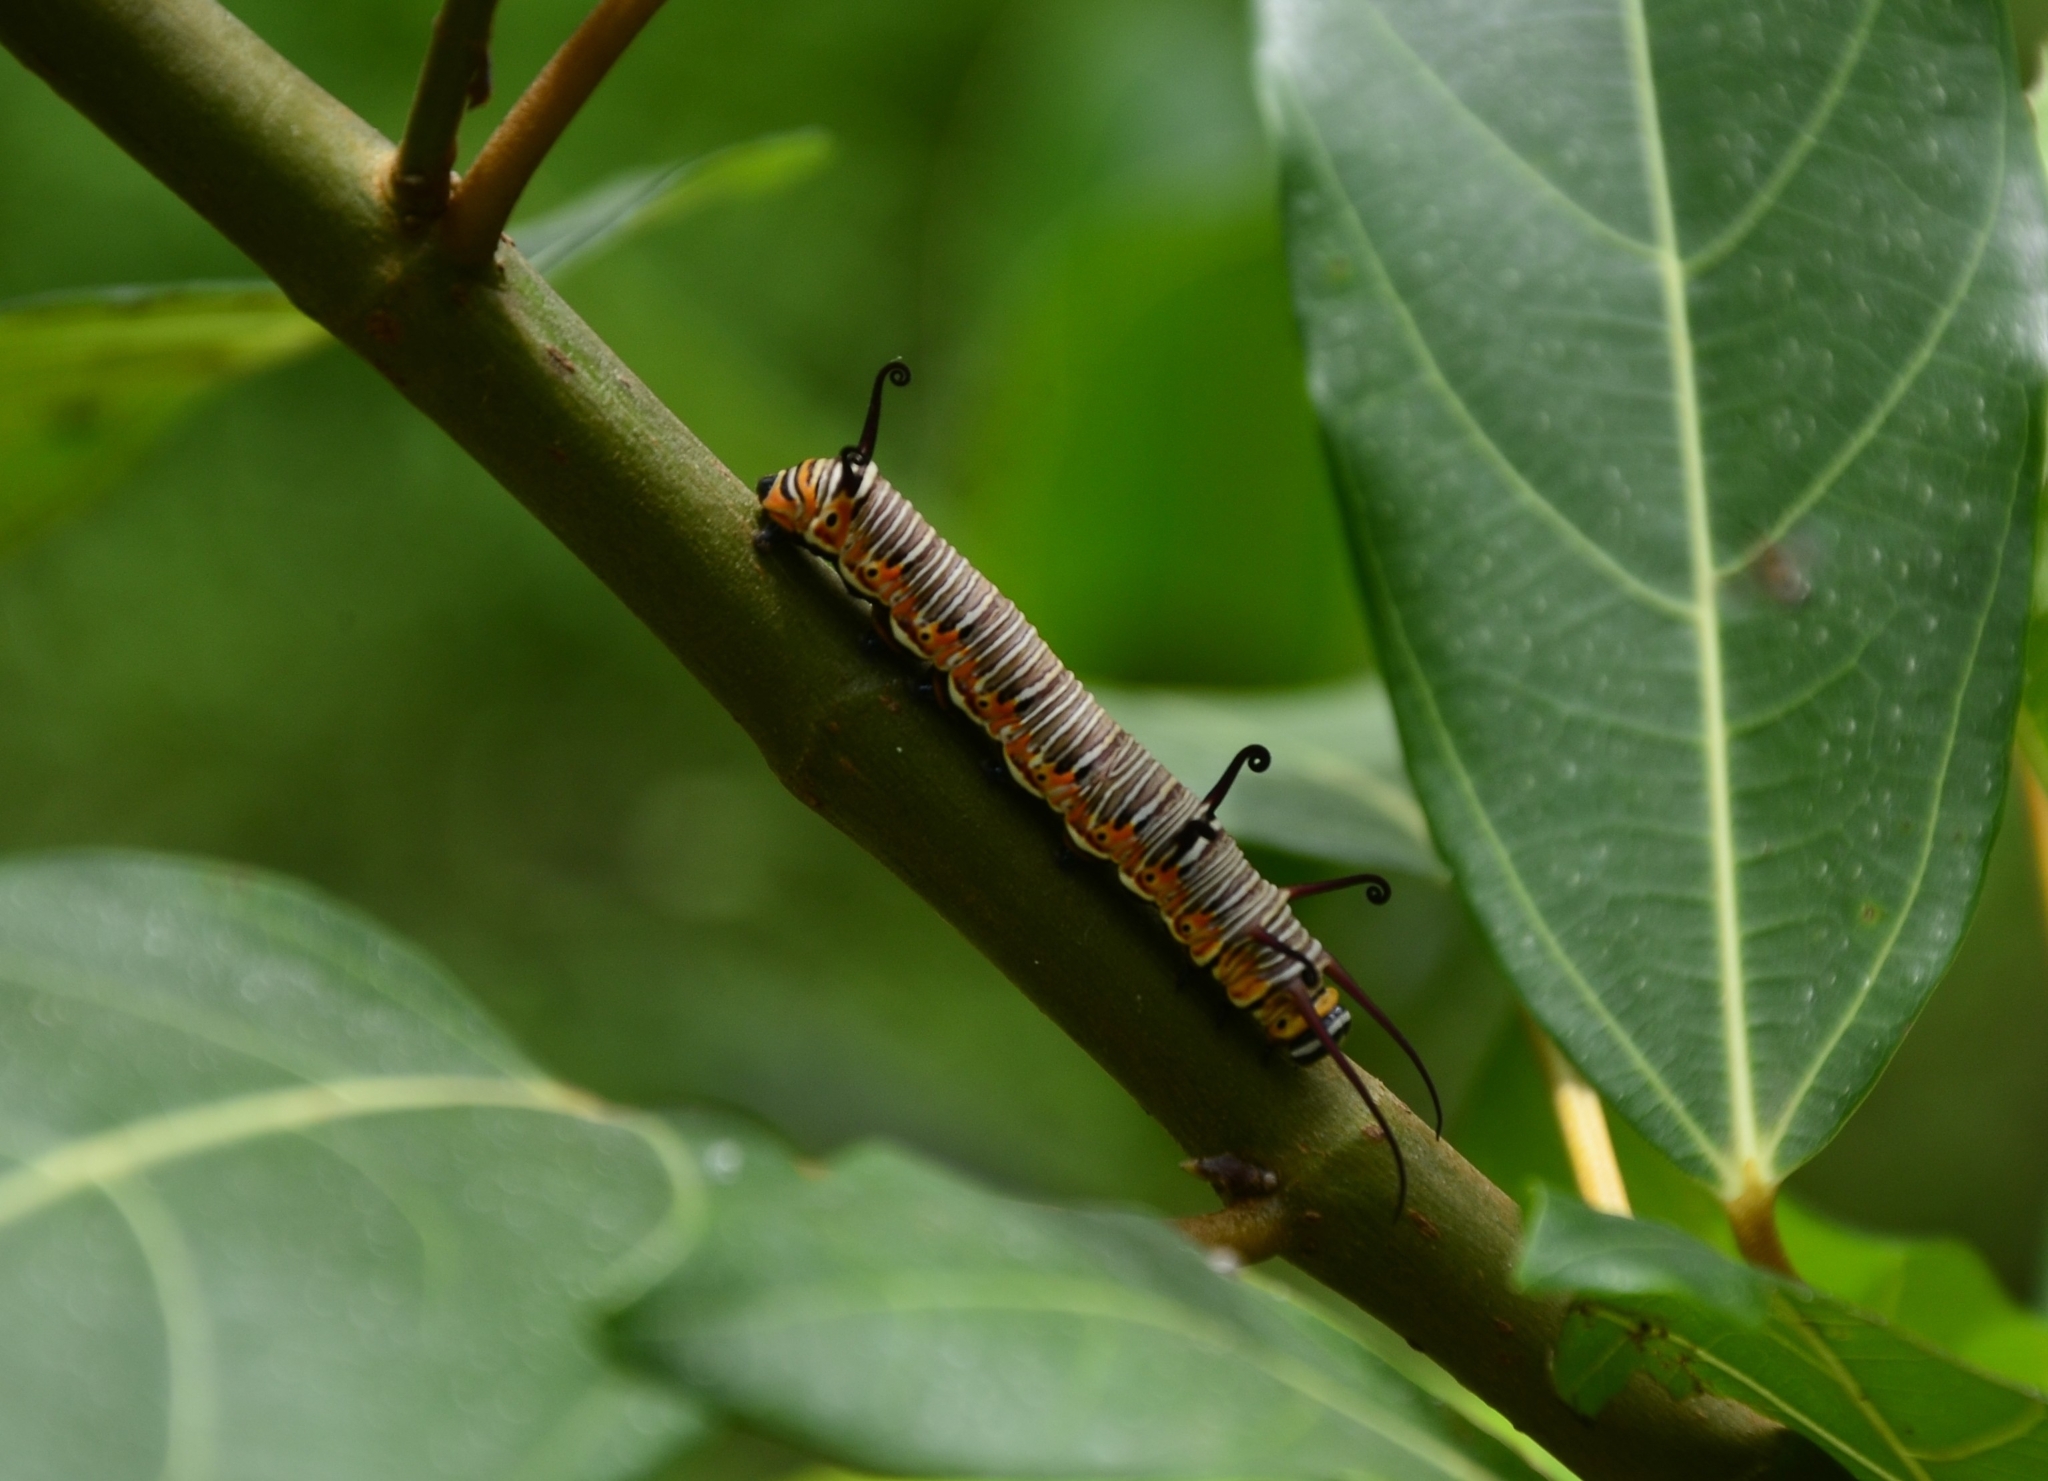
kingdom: Animalia
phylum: Arthropoda
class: Insecta
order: Lepidoptera
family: Nymphalidae
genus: Euploea
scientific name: Euploea core
